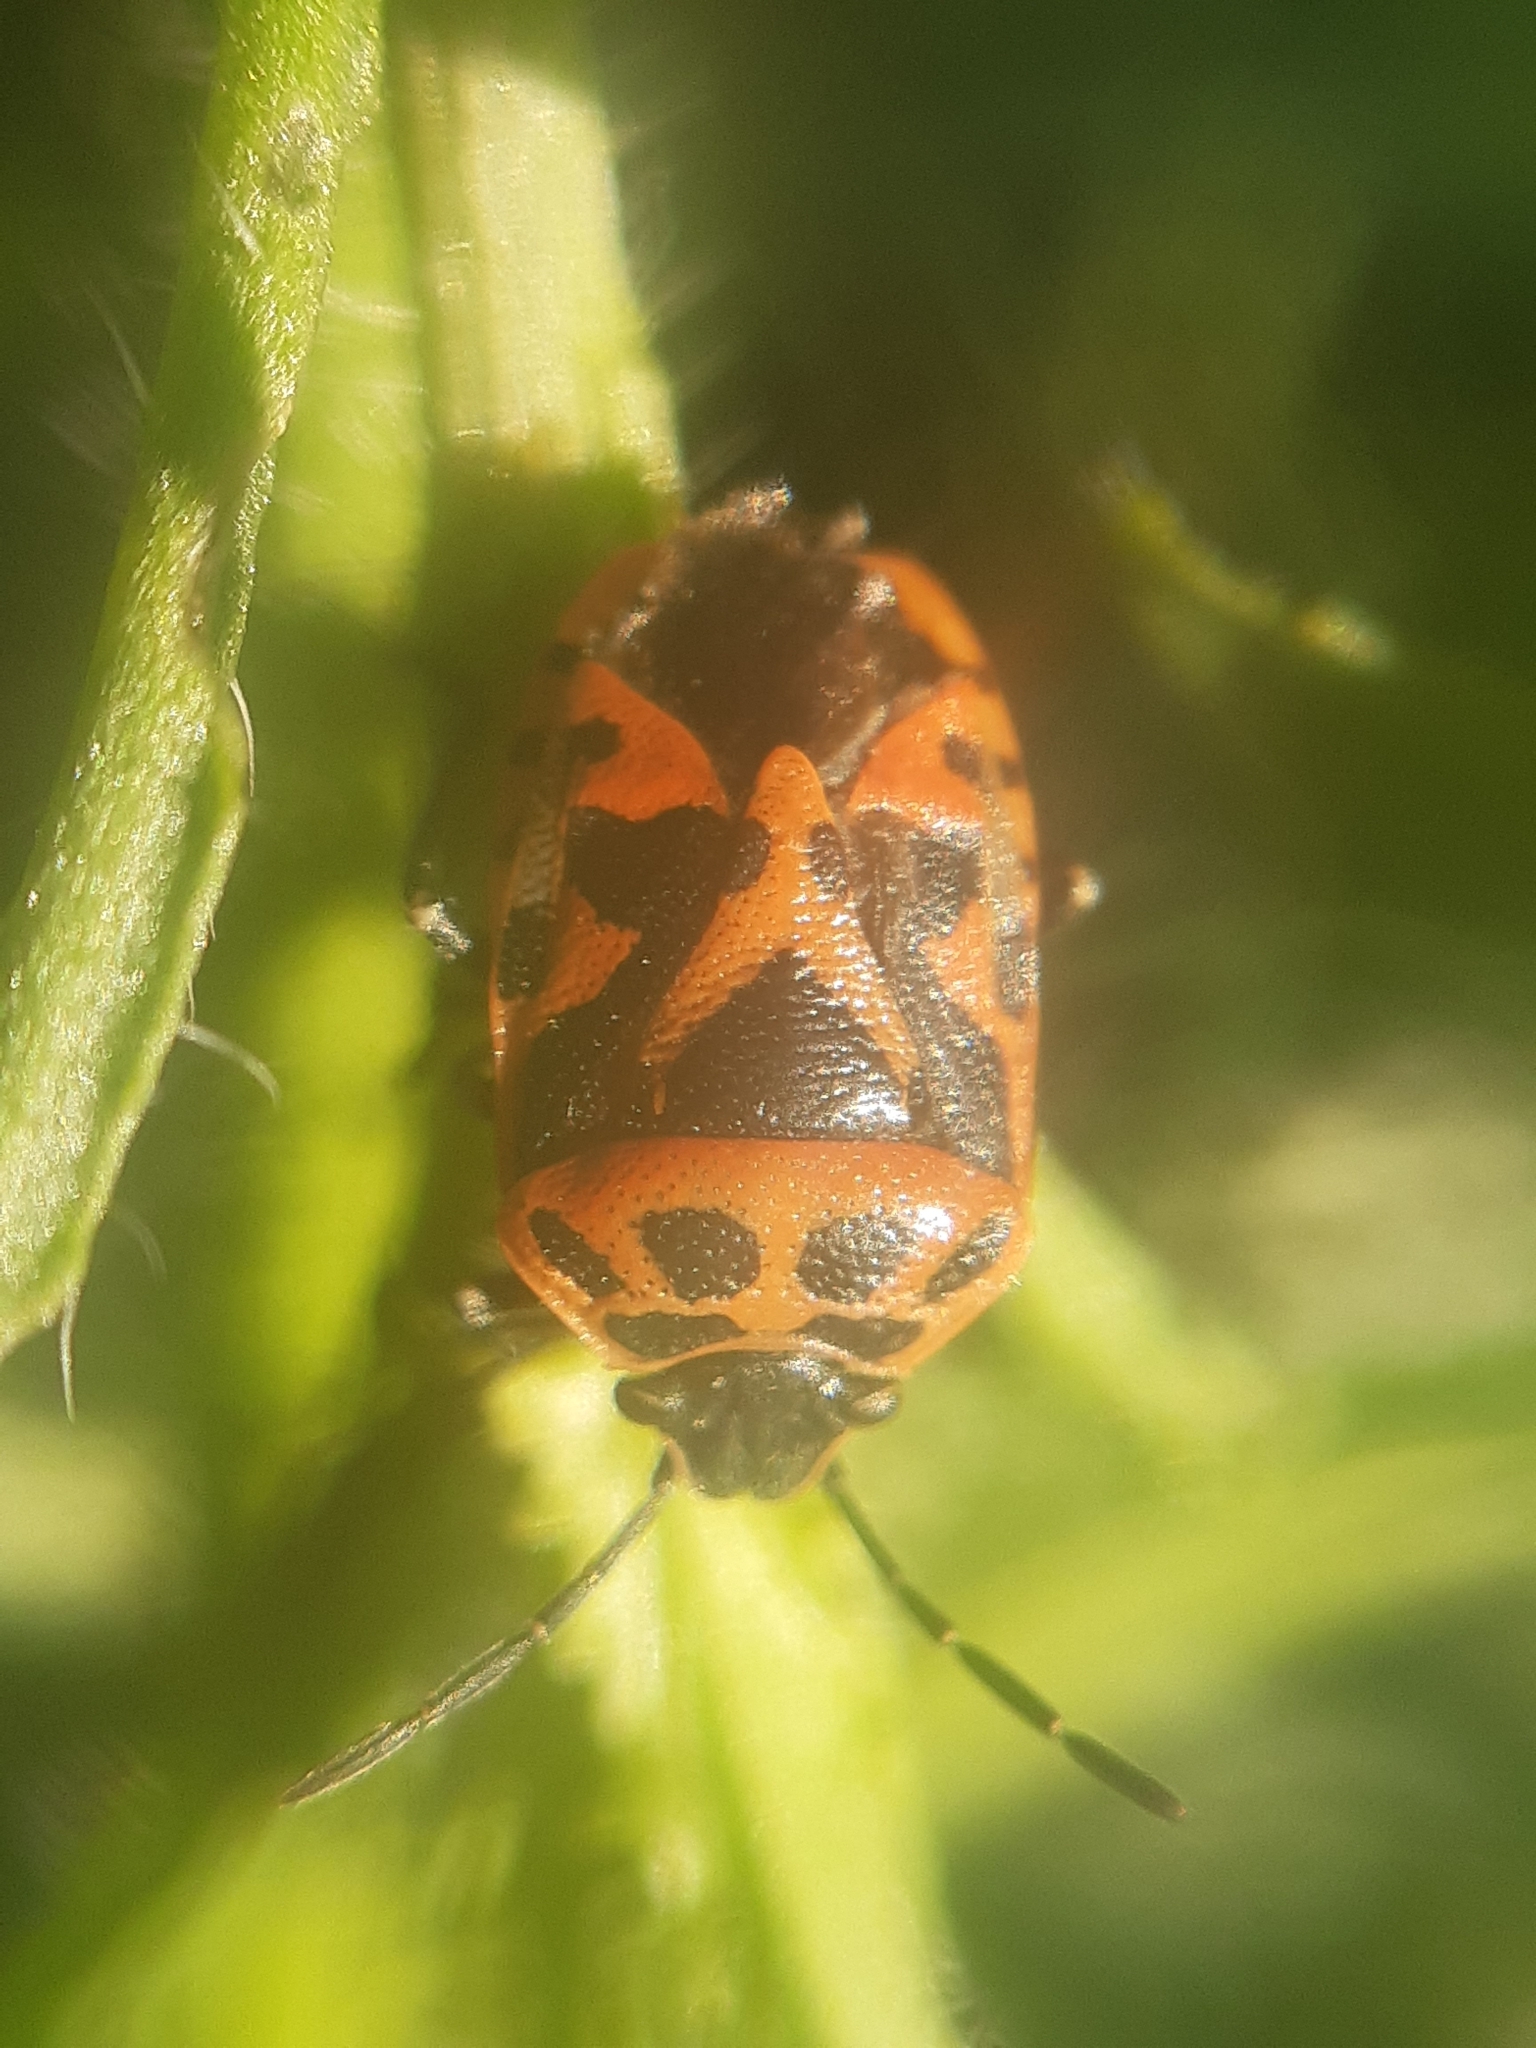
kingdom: Animalia
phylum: Arthropoda
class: Insecta
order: Hemiptera
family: Pentatomidae
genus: Eurydema
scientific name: Eurydema ornata
